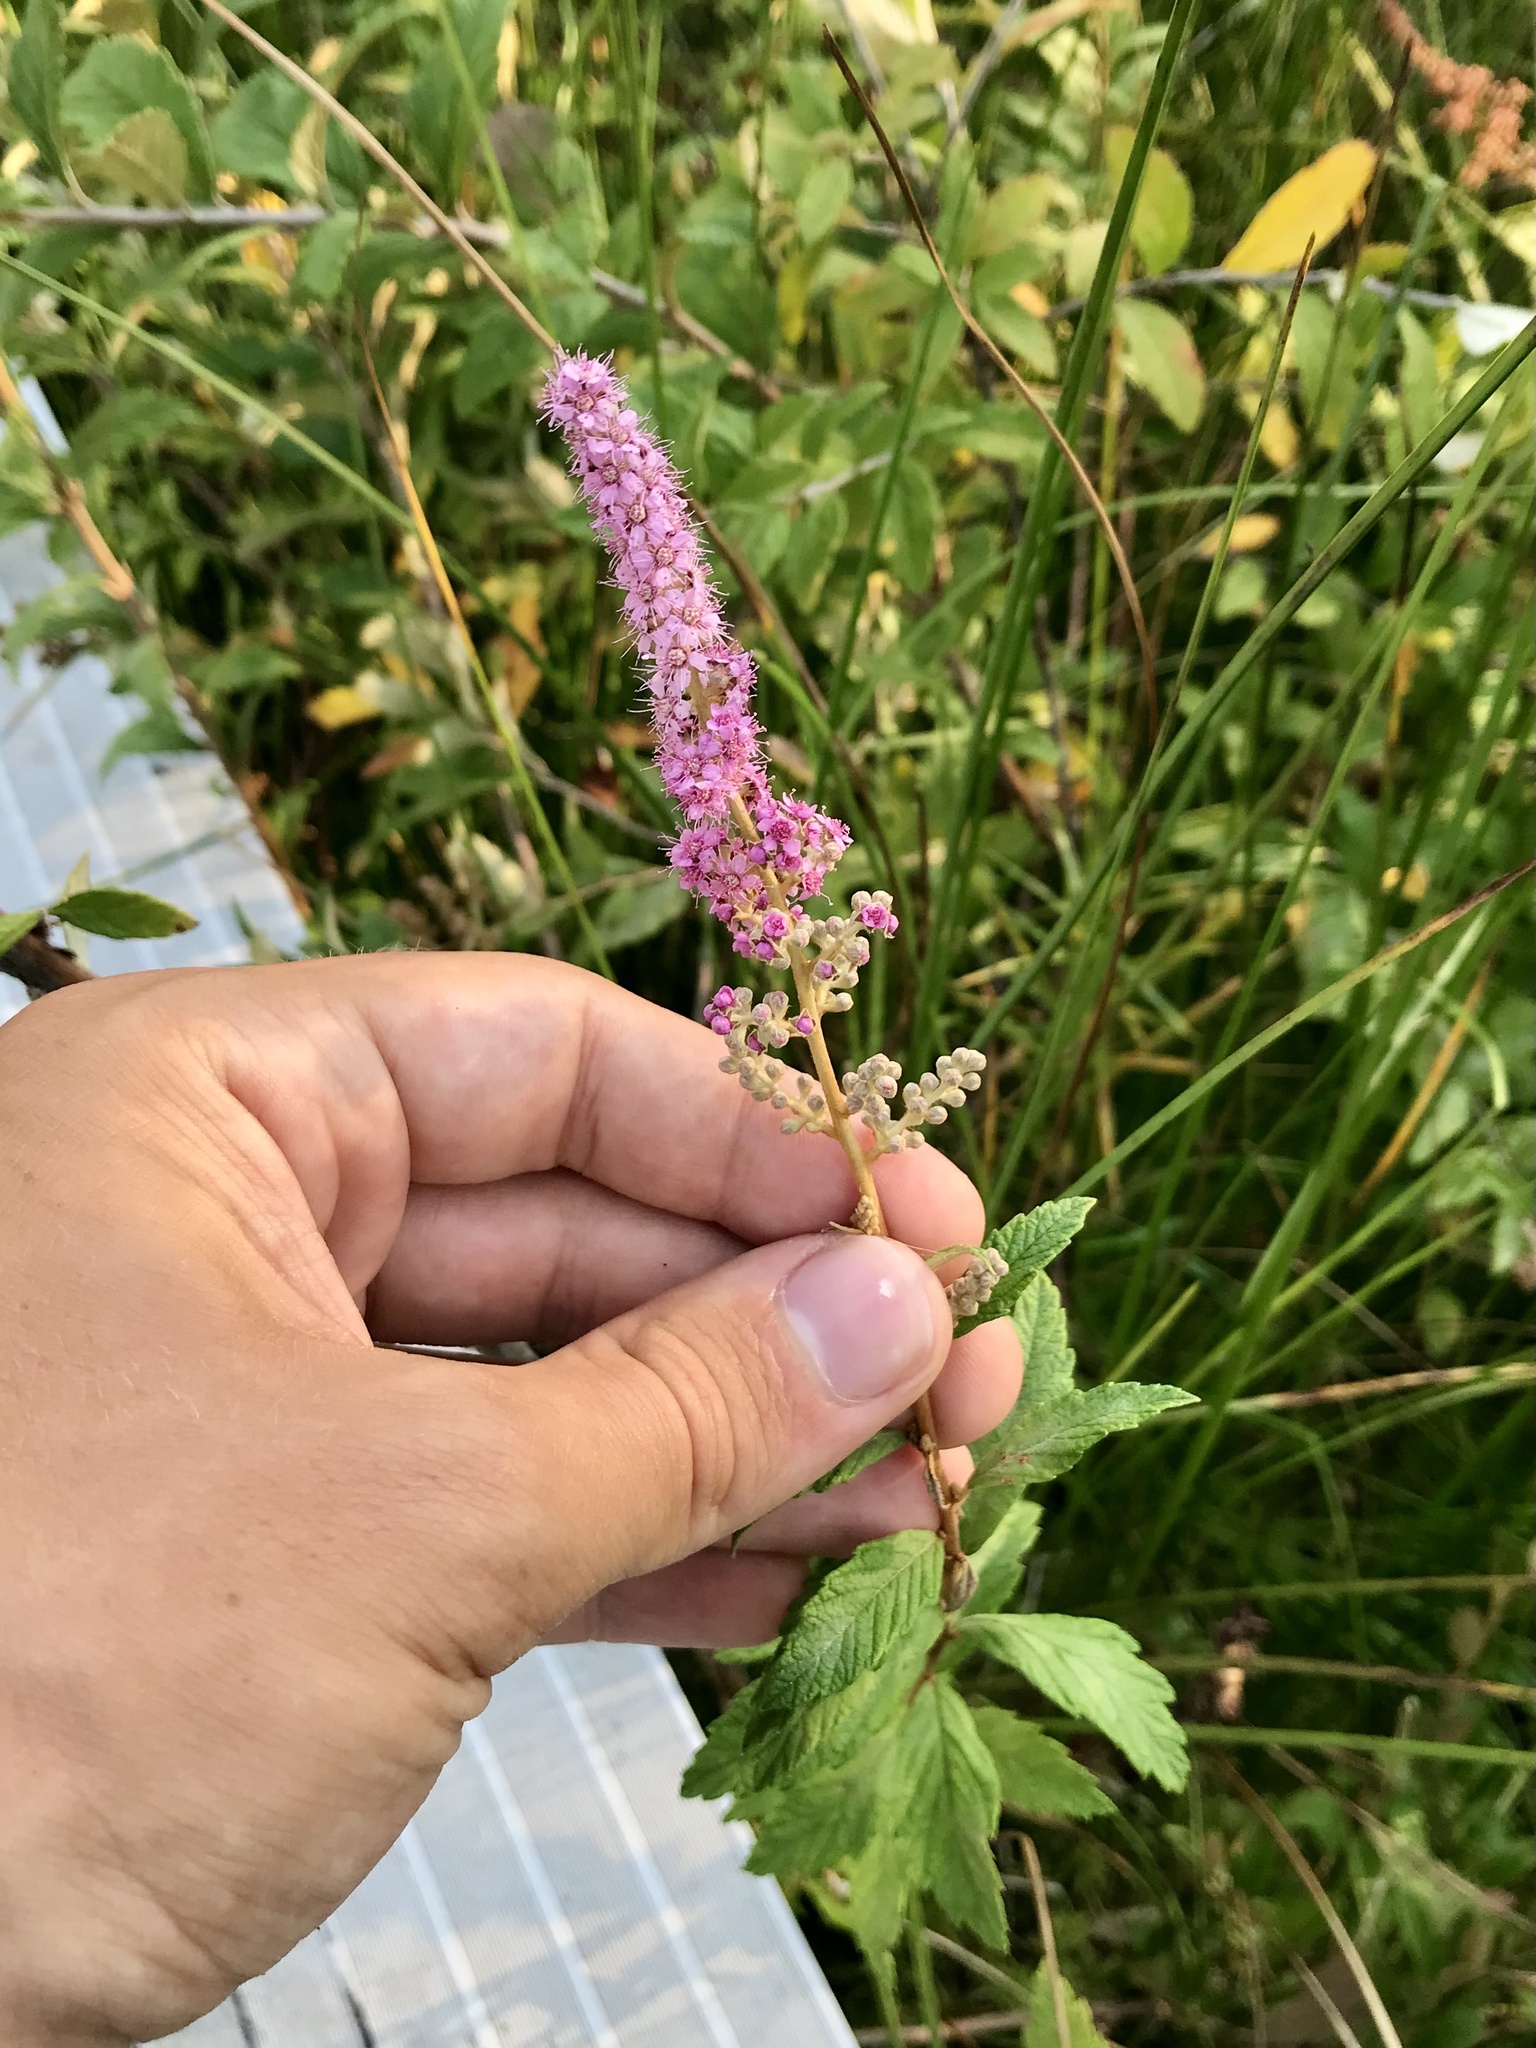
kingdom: Plantae
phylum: Tracheophyta
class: Magnoliopsida
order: Rosales
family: Rosaceae
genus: Spiraea
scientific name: Spiraea tomentosa
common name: Hardhack
